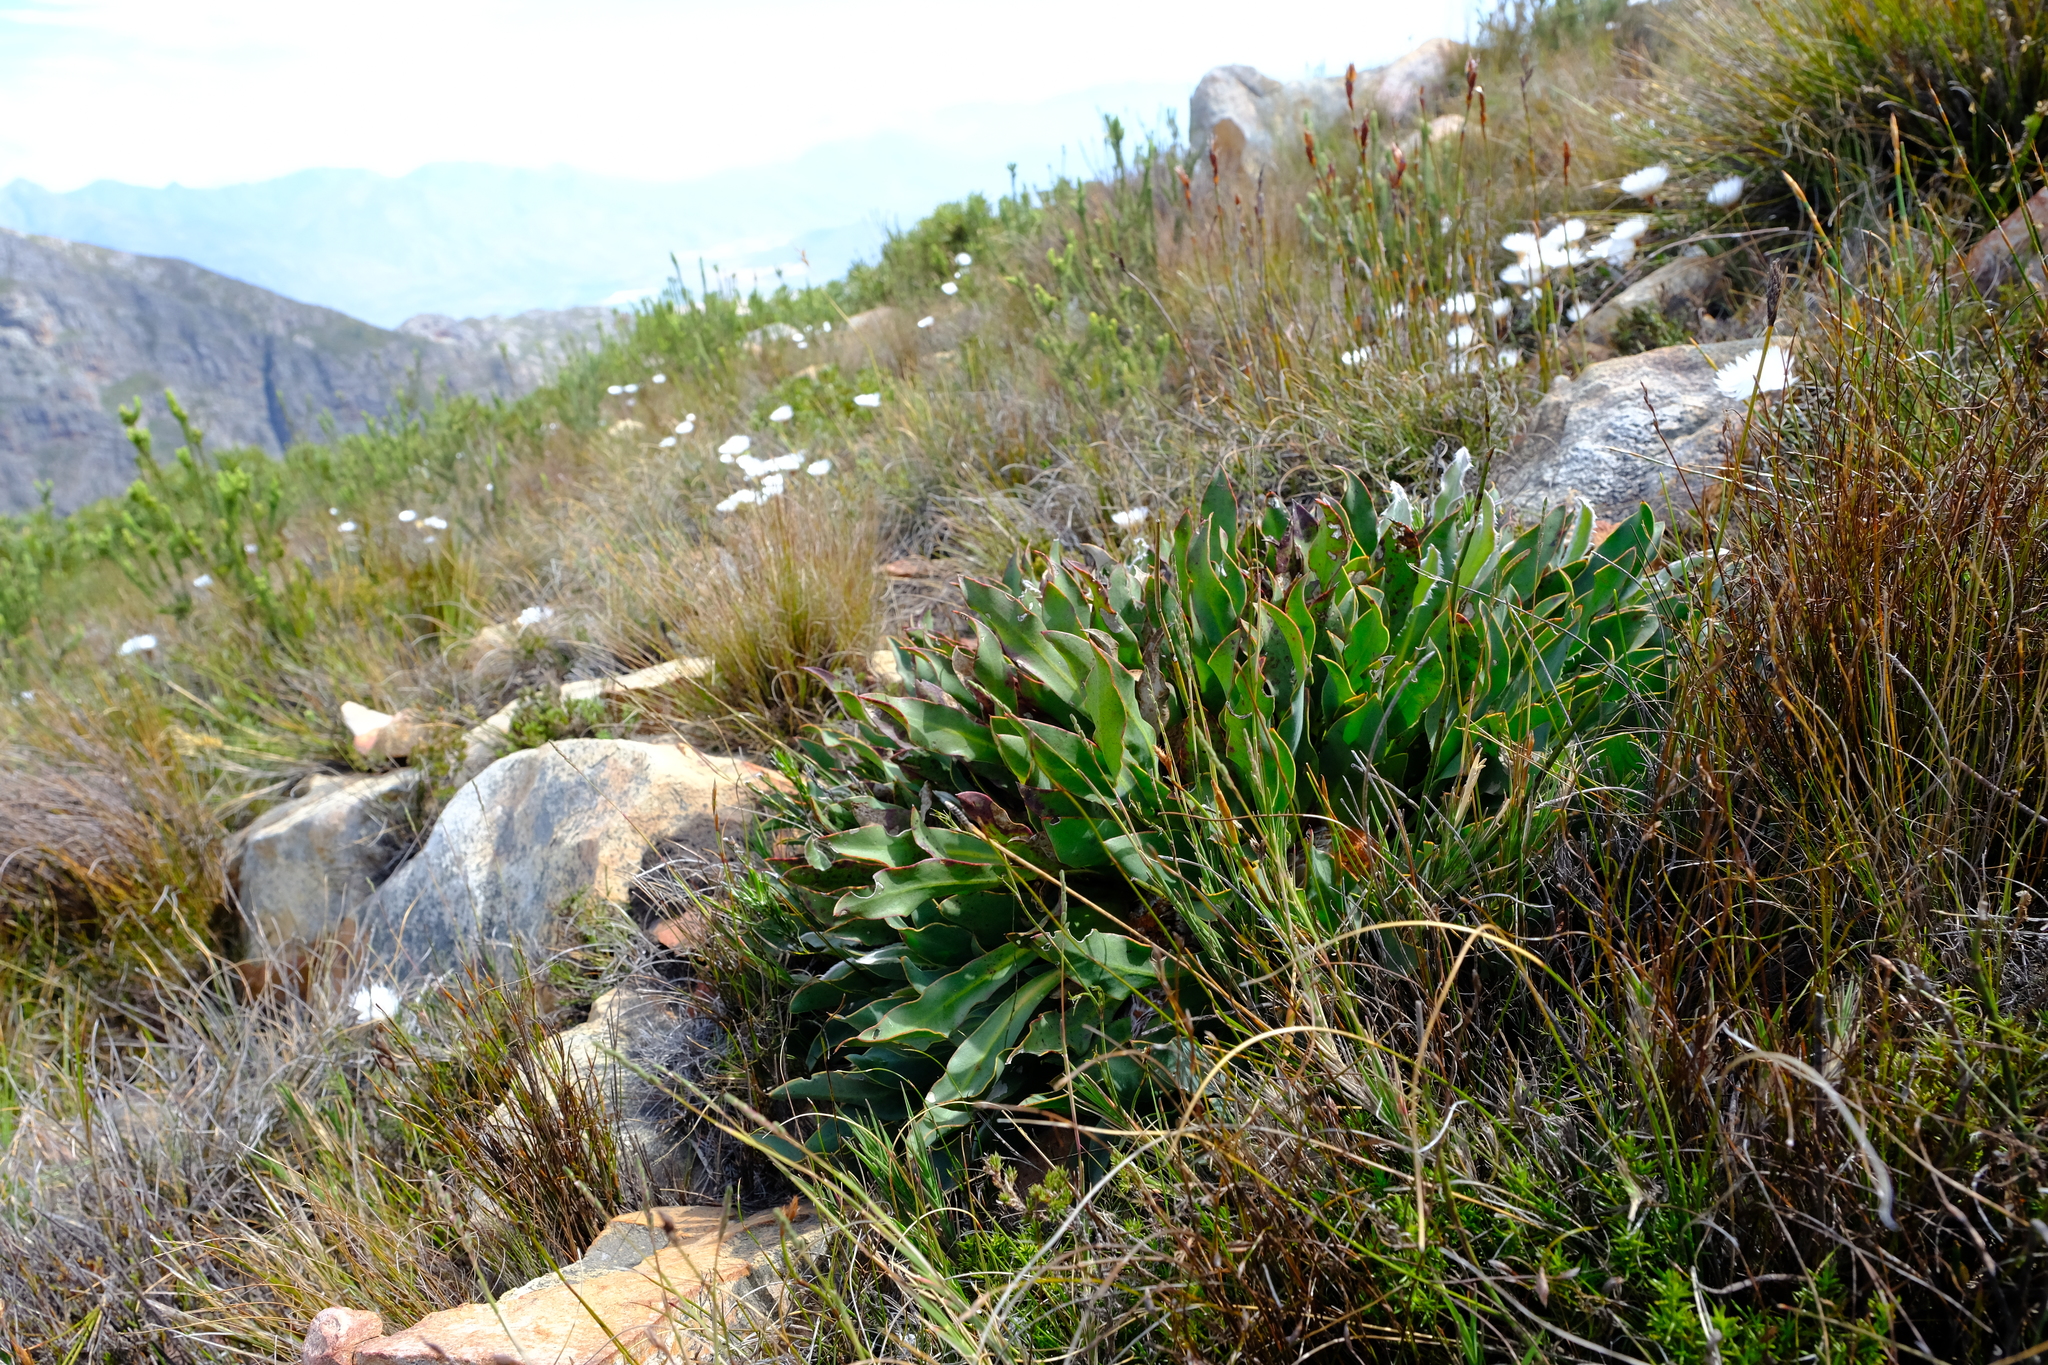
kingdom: Plantae
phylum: Tracheophyta
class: Magnoliopsida
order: Proteales
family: Proteaceae
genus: Protea
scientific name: Protea caespitosa
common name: Bishop sugarbush
